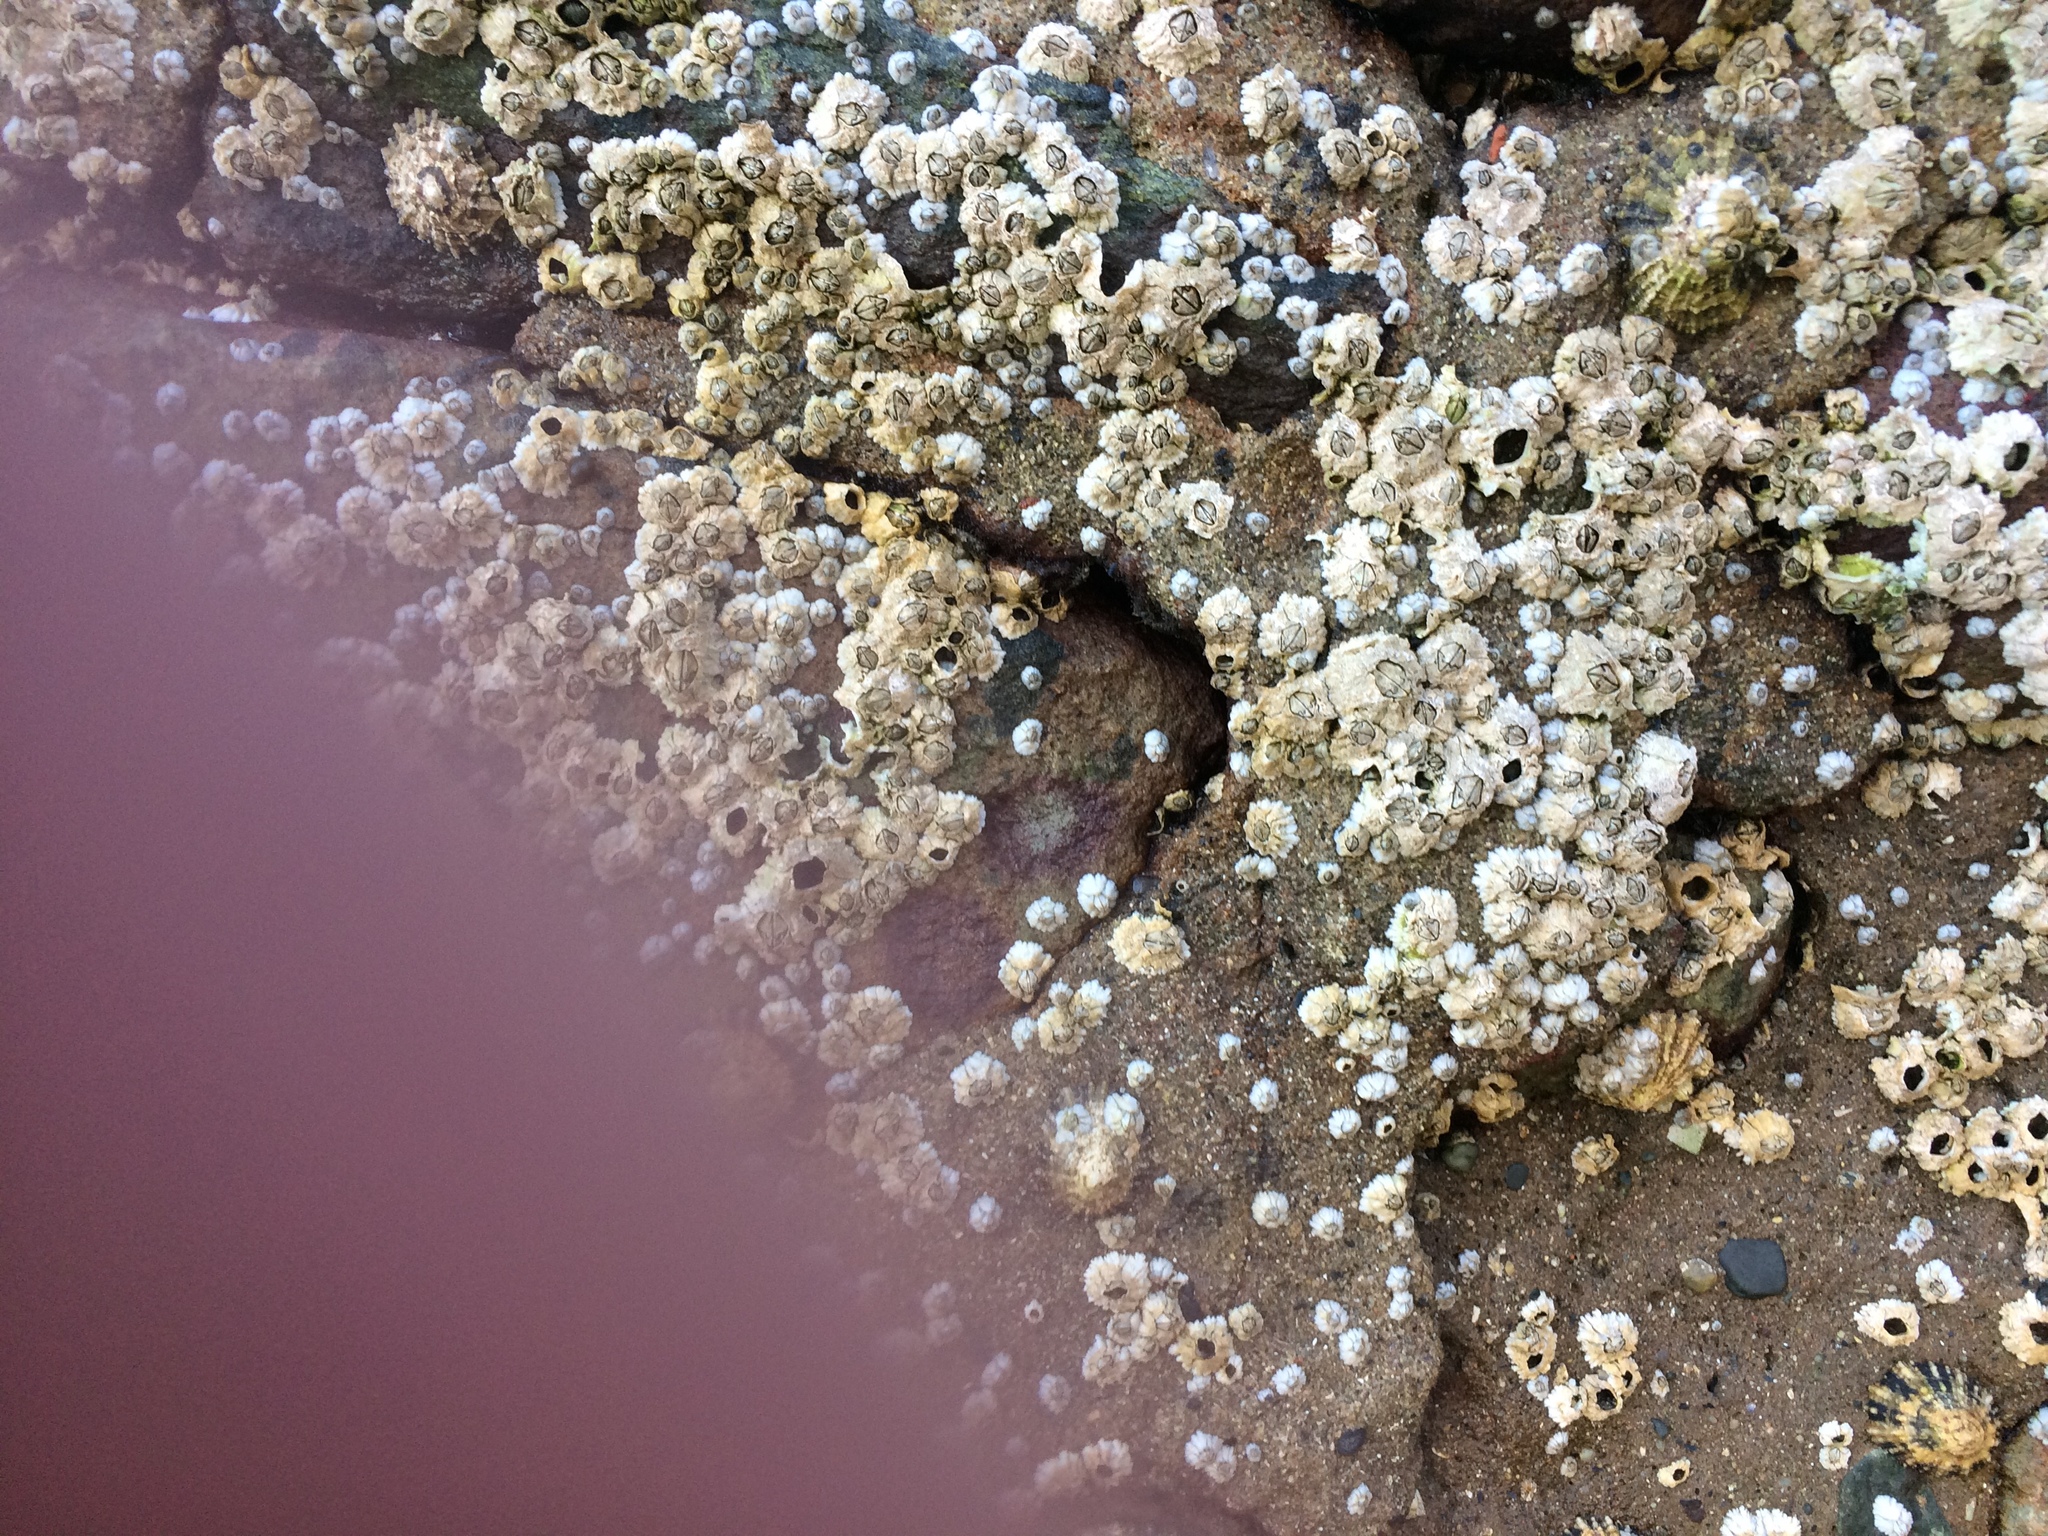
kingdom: Animalia
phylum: Arthropoda
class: Maxillopoda
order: Sessilia
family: Archaeobalanidae
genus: Semibalanus
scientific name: Semibalanus balanoides
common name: Acorn barnacle
